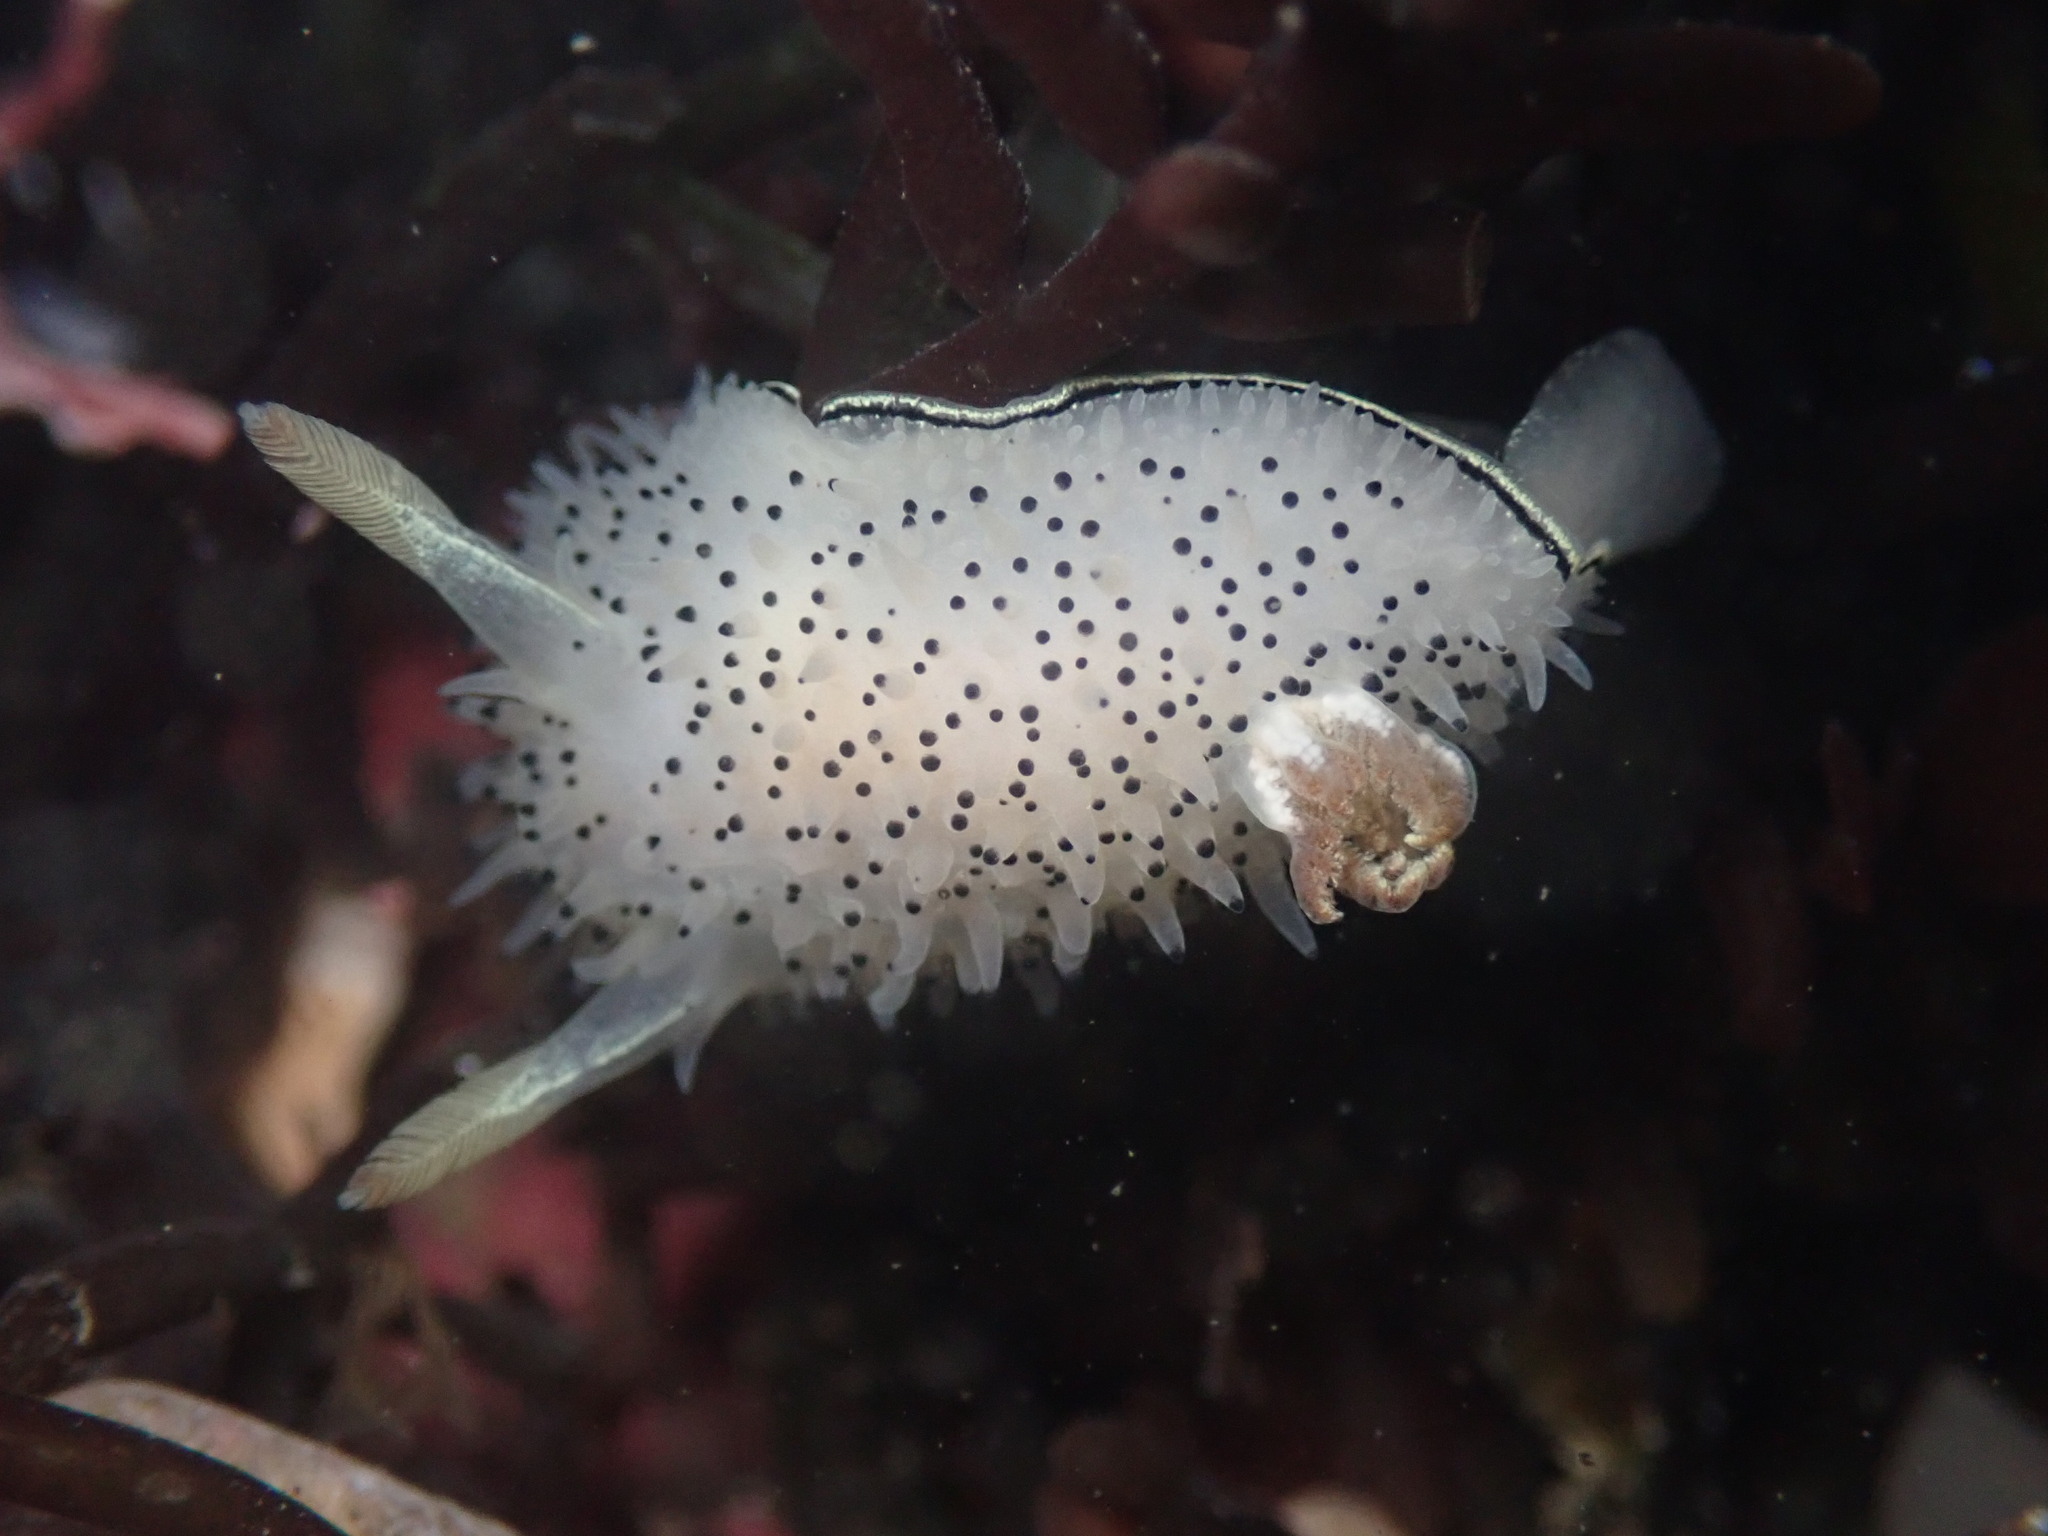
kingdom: Animalia
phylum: Mollusca
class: Gastropoda
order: Nudibranchia
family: Onchidorididae
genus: Acanthodoris
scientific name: Acanthodoris rhodoceras
